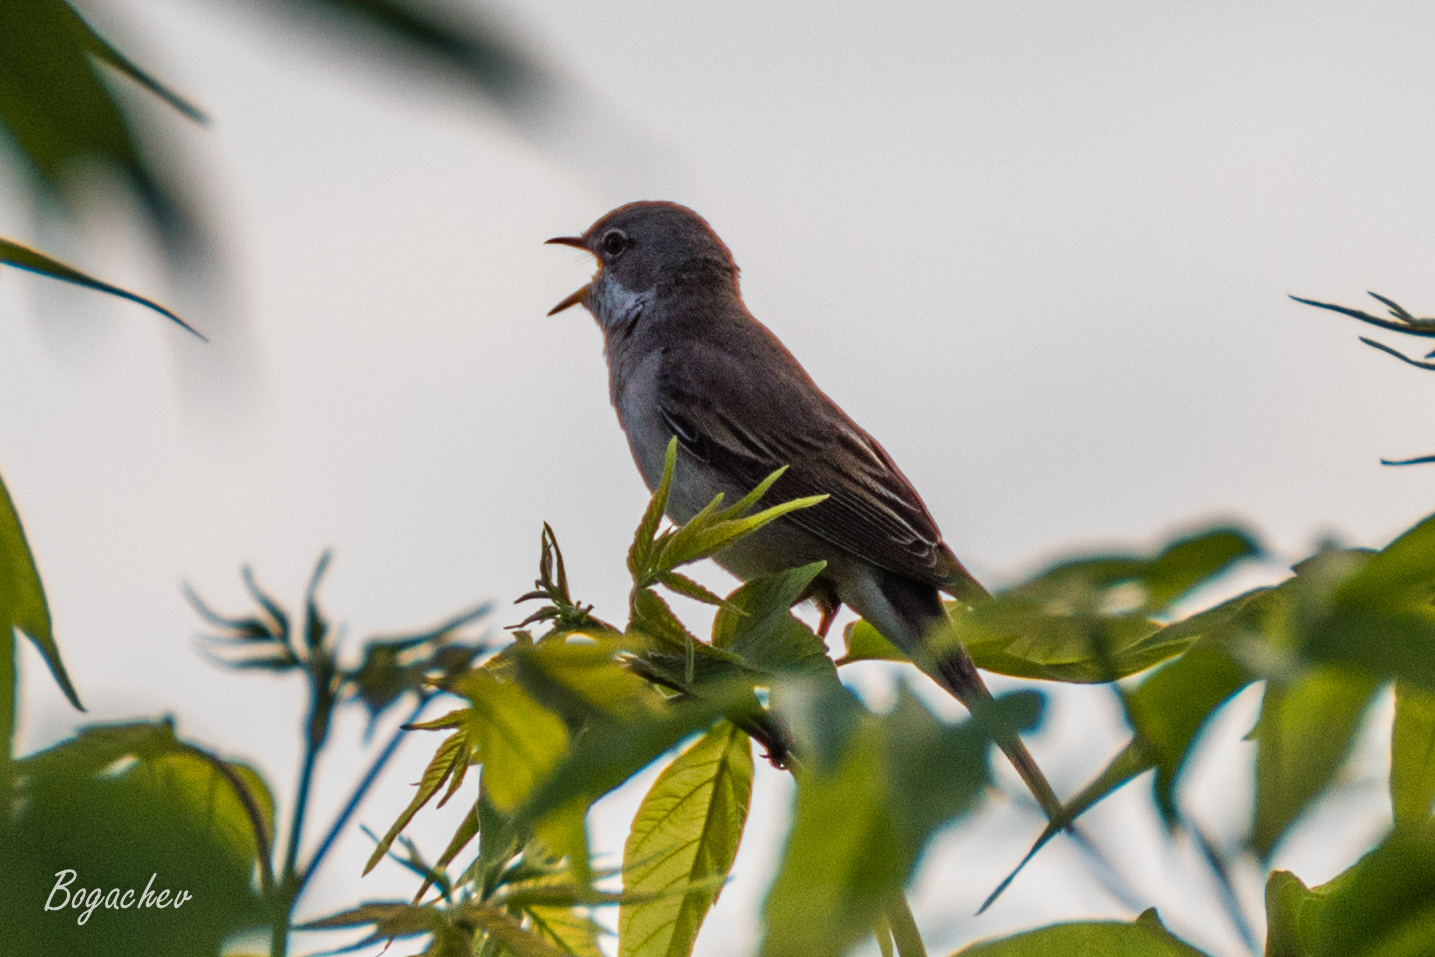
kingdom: Animalia
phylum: Chordata
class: Aves
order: Passeriformes
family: Sylviidae
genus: Sylvia
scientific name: Sylvia communis
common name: Common whitethroat
